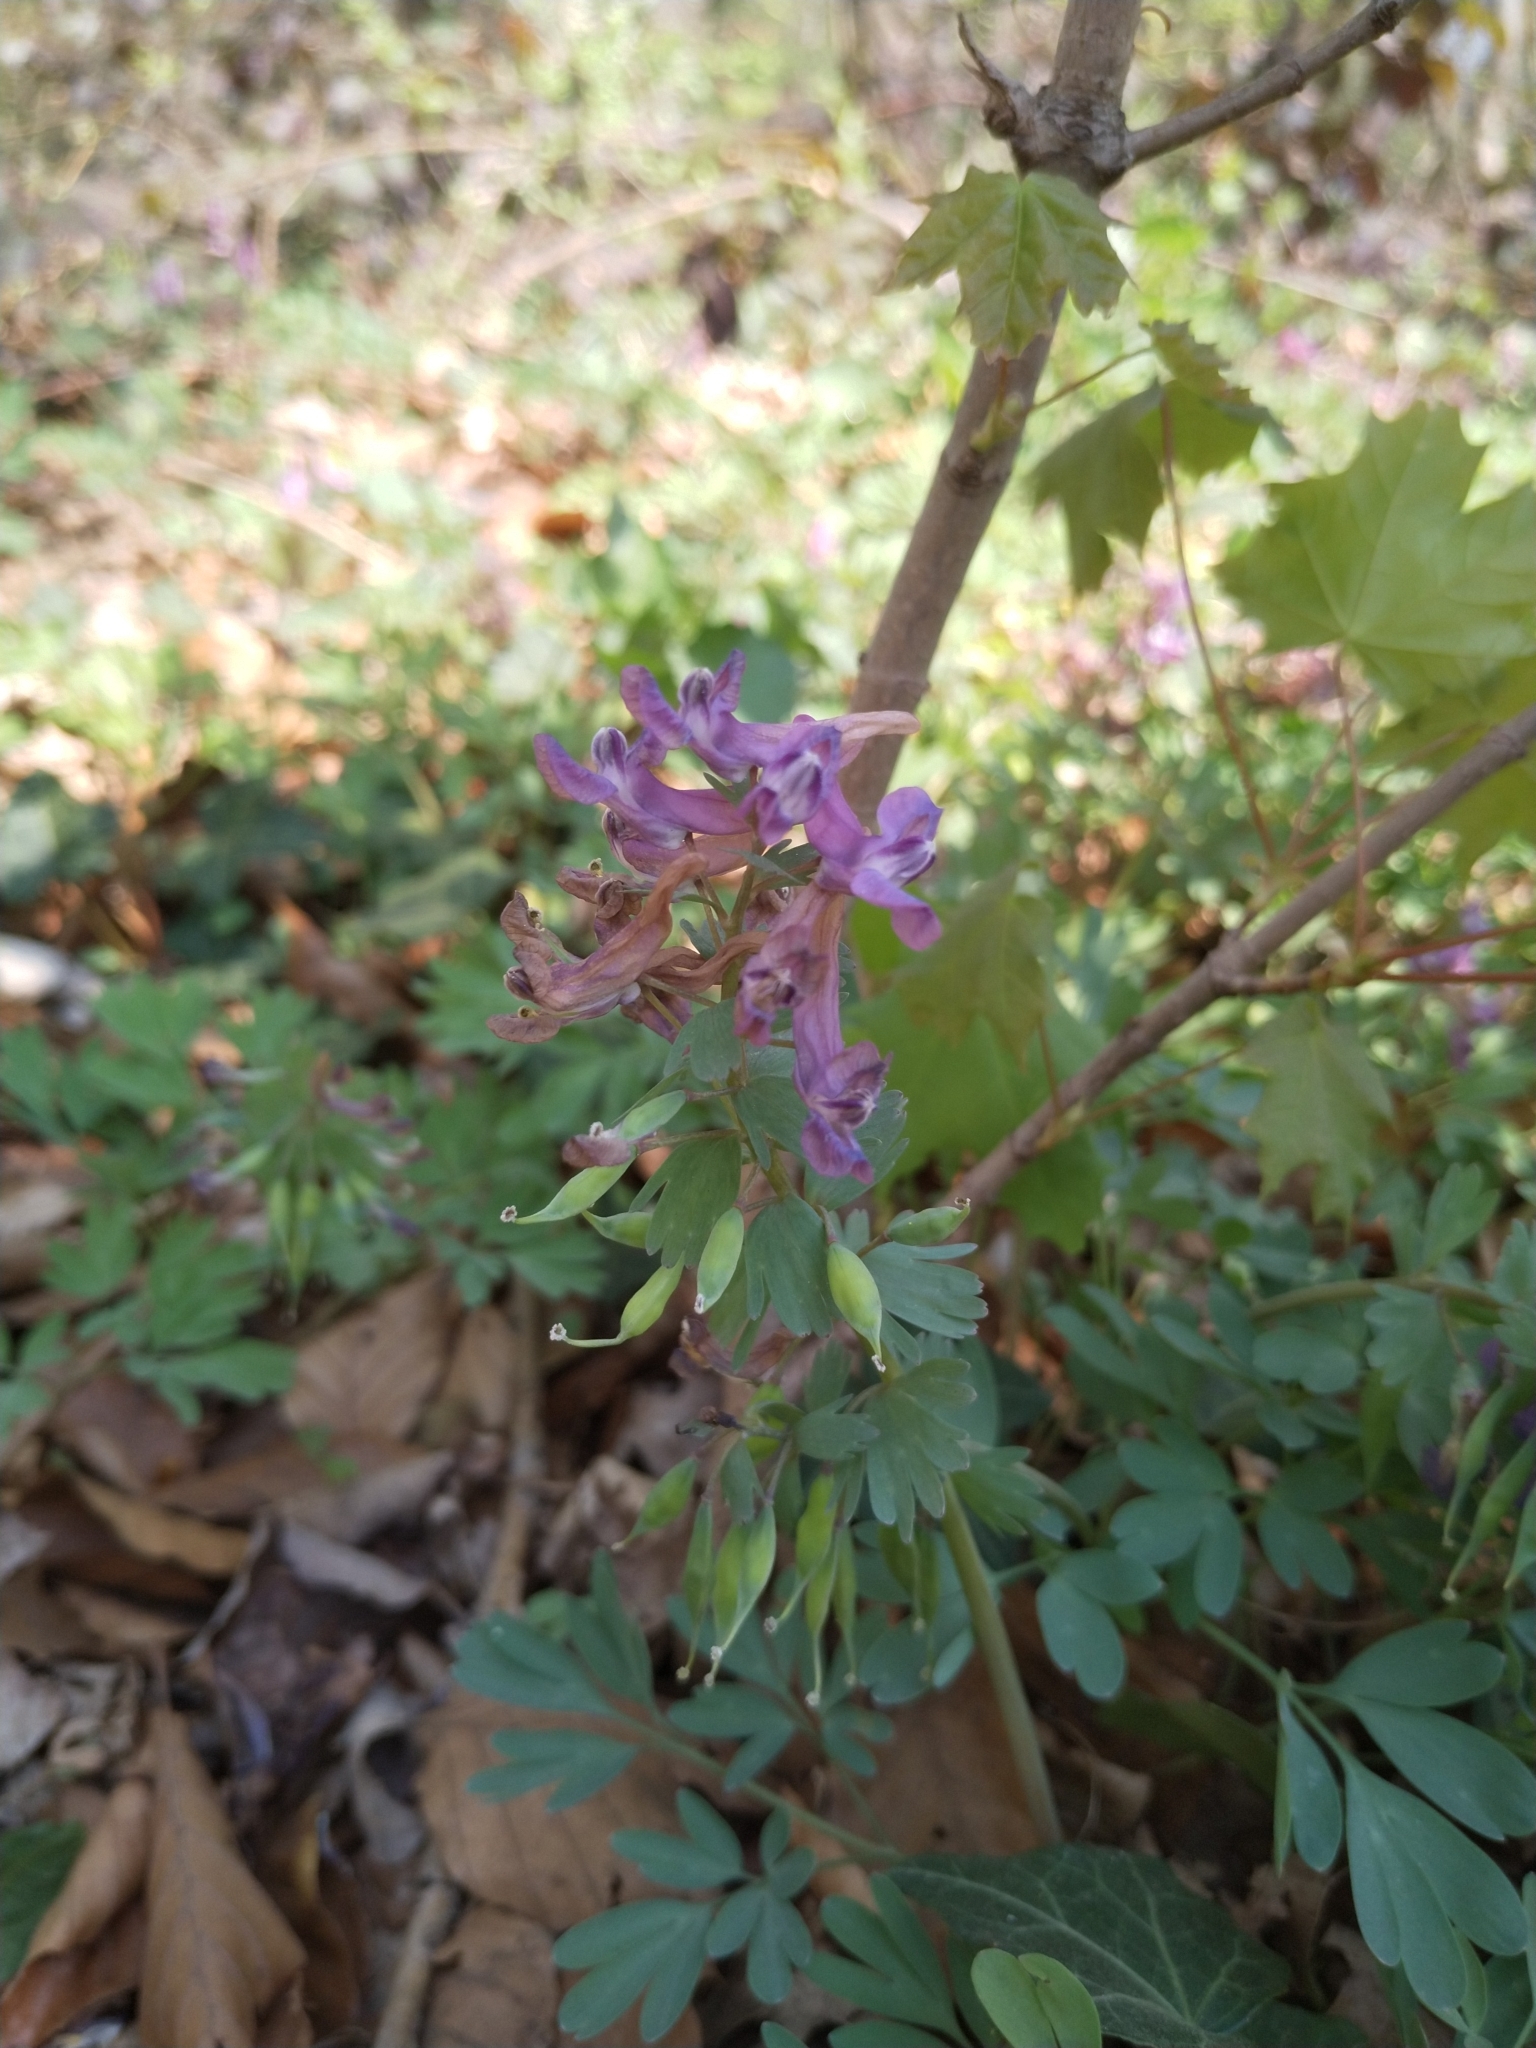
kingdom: Plantae
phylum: Tracheophyta
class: Magnoliopsida
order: Ranunculales
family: Papaveraceae
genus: Corydalis
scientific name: Corydalis solida
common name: Bird-in-a-bush
